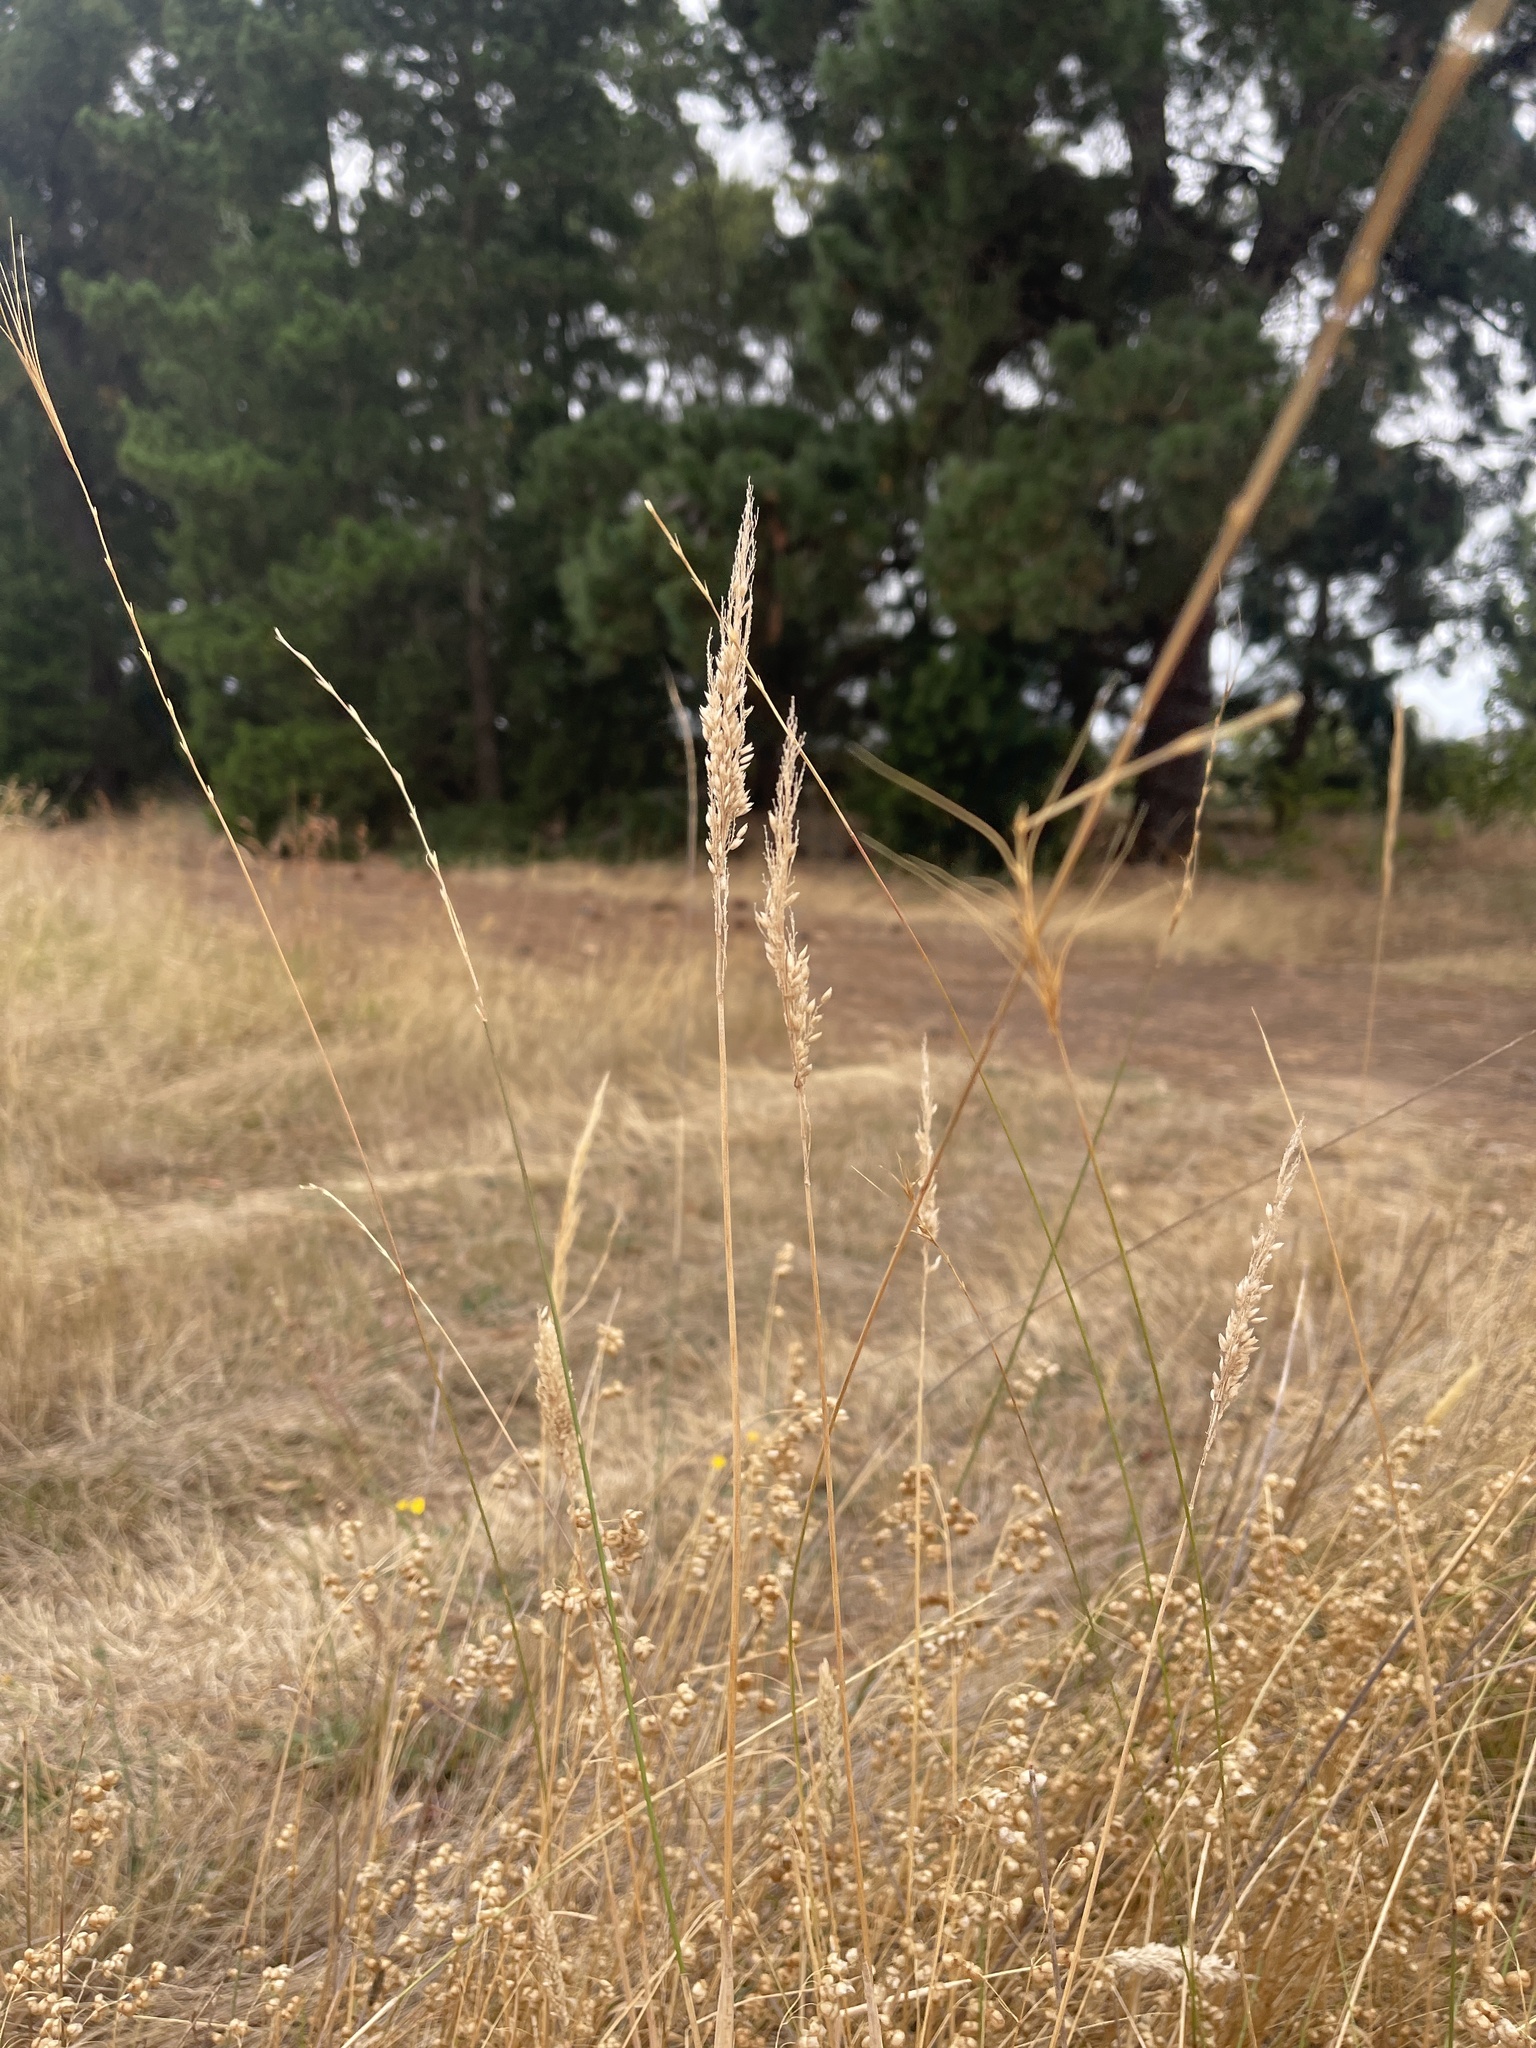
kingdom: Plantae
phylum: Tracheophyta
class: Liliopsida
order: Poales
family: Poaceae
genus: Holcus
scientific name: Holcus lanatus
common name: Yorkshire-fog
